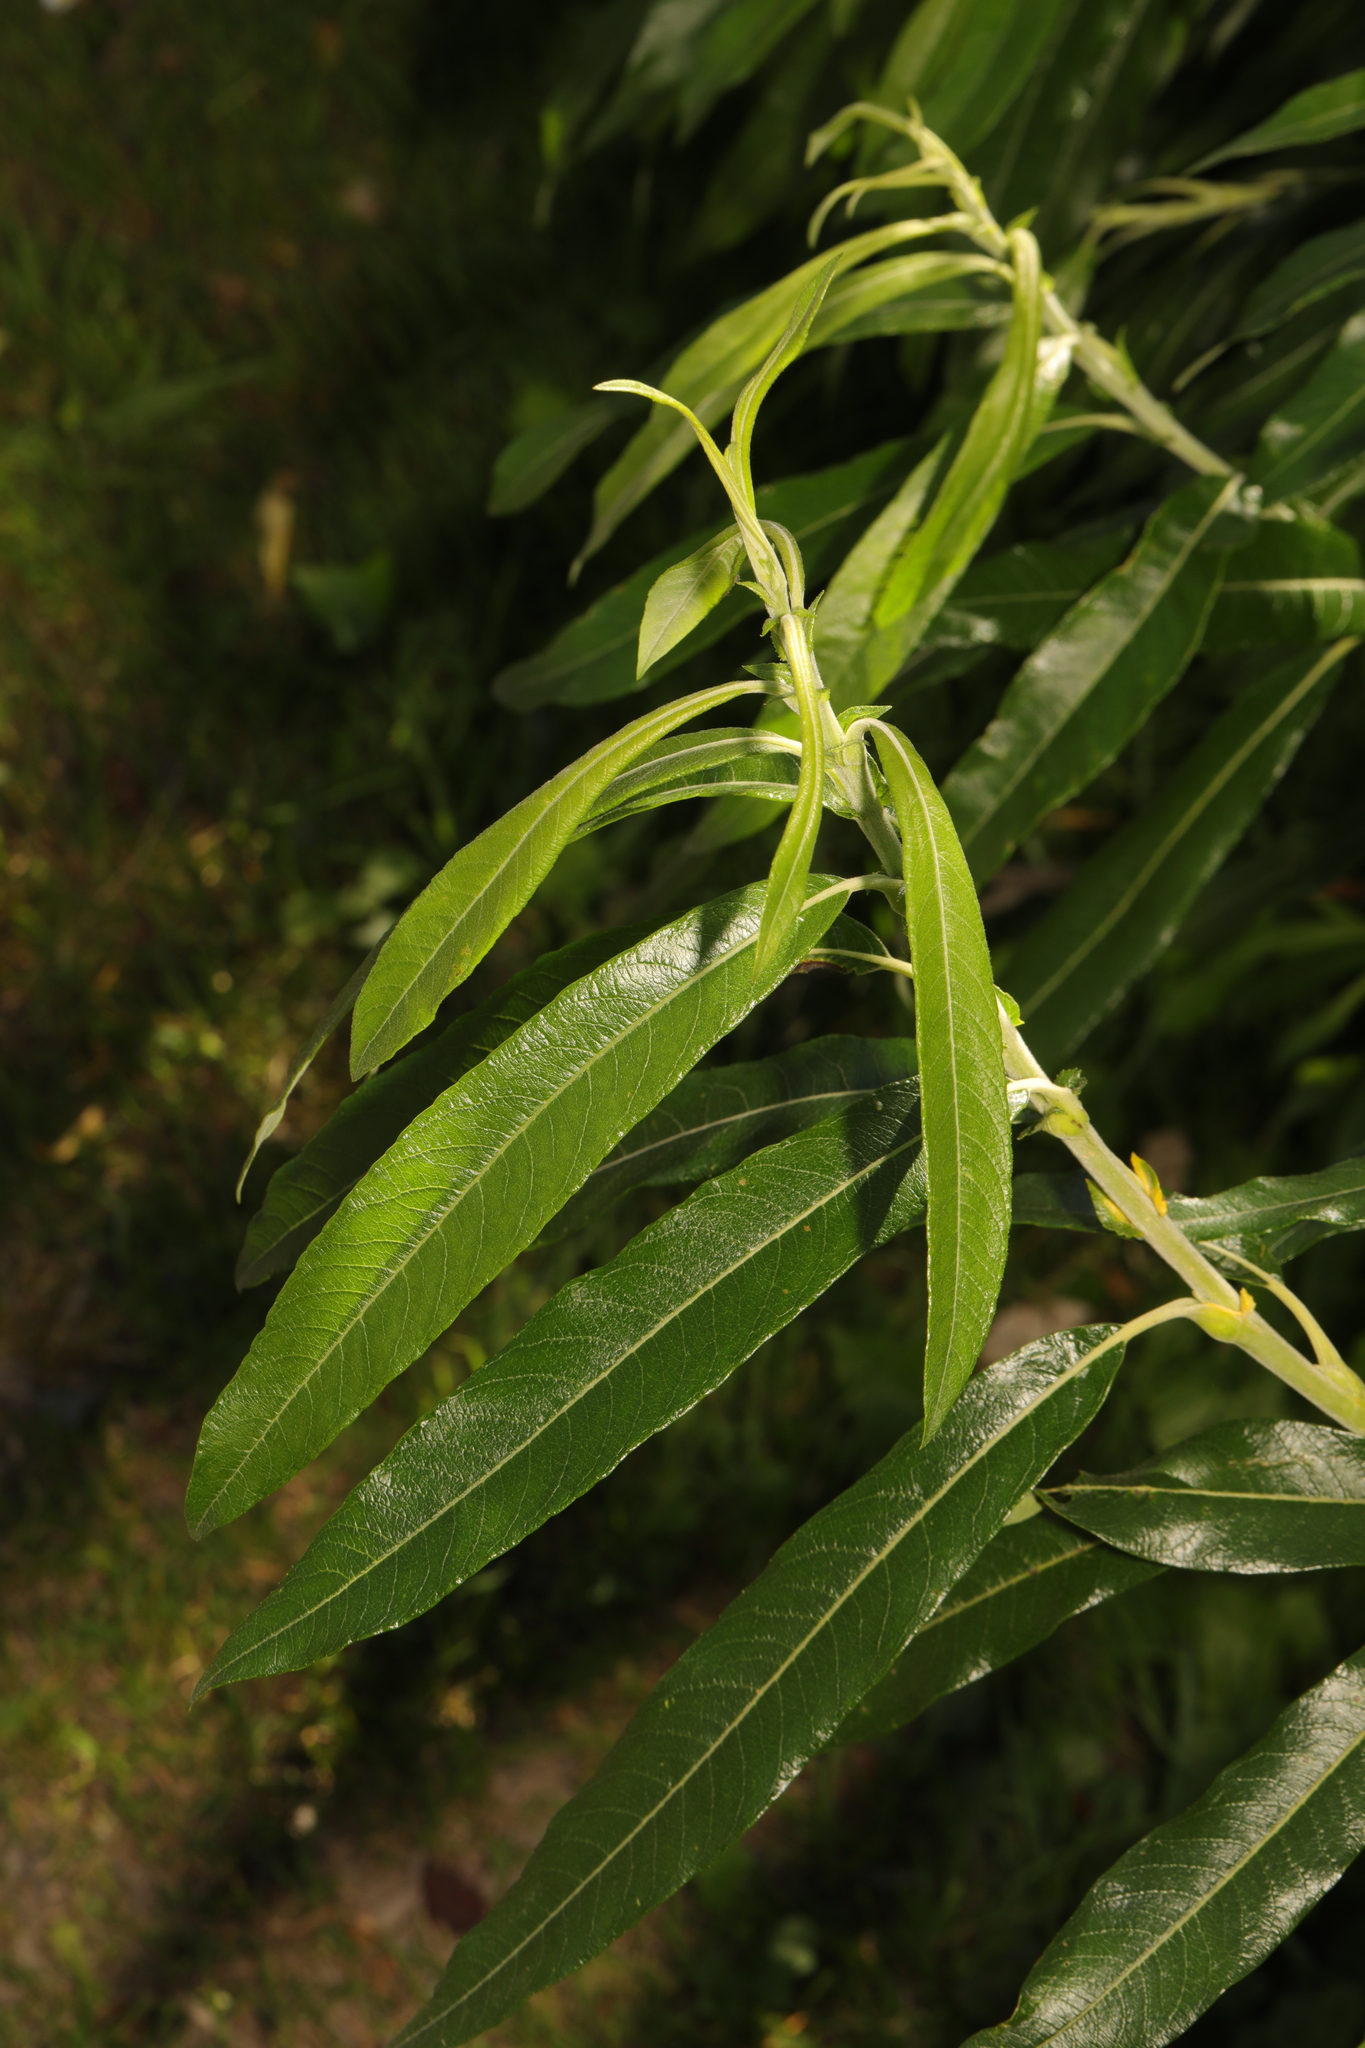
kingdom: Plantae
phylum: Tracheophyta
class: Magnoliopsida
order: Malpighiales
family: Salicaceae
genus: Salix
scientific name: Salix viminalis
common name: Osier
